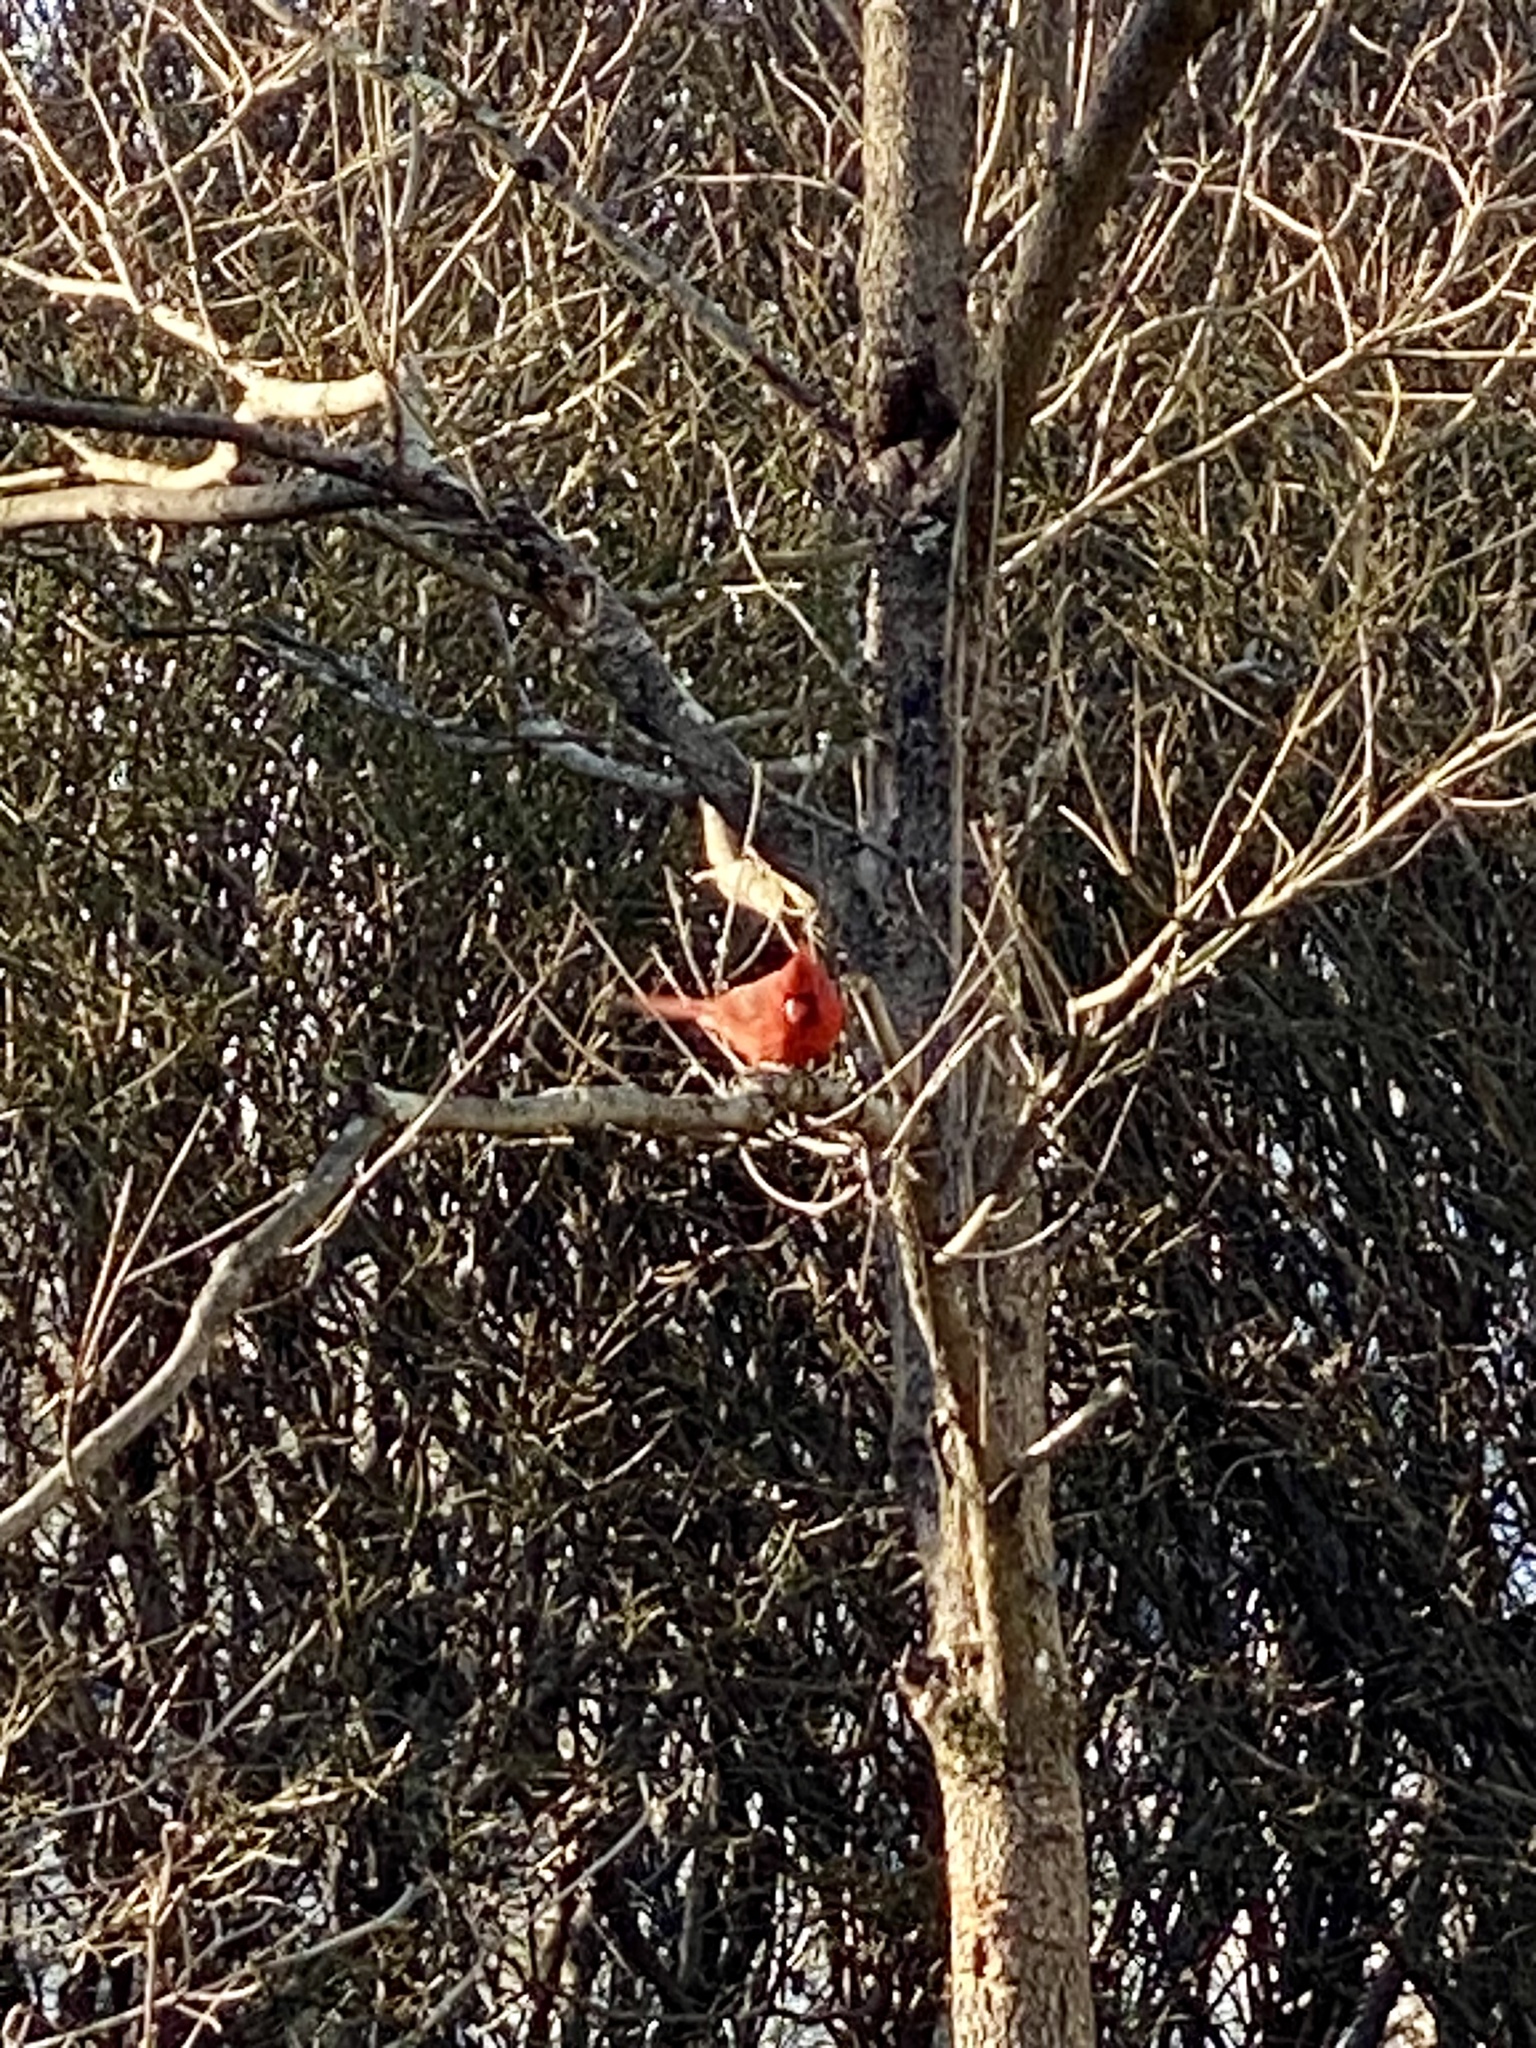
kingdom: Animalia
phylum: Chordata
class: Aves
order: Passeriformes
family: Cardinalidae
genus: Cardinalis
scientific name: Cardinalis cardinalis
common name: Northern cardinal
